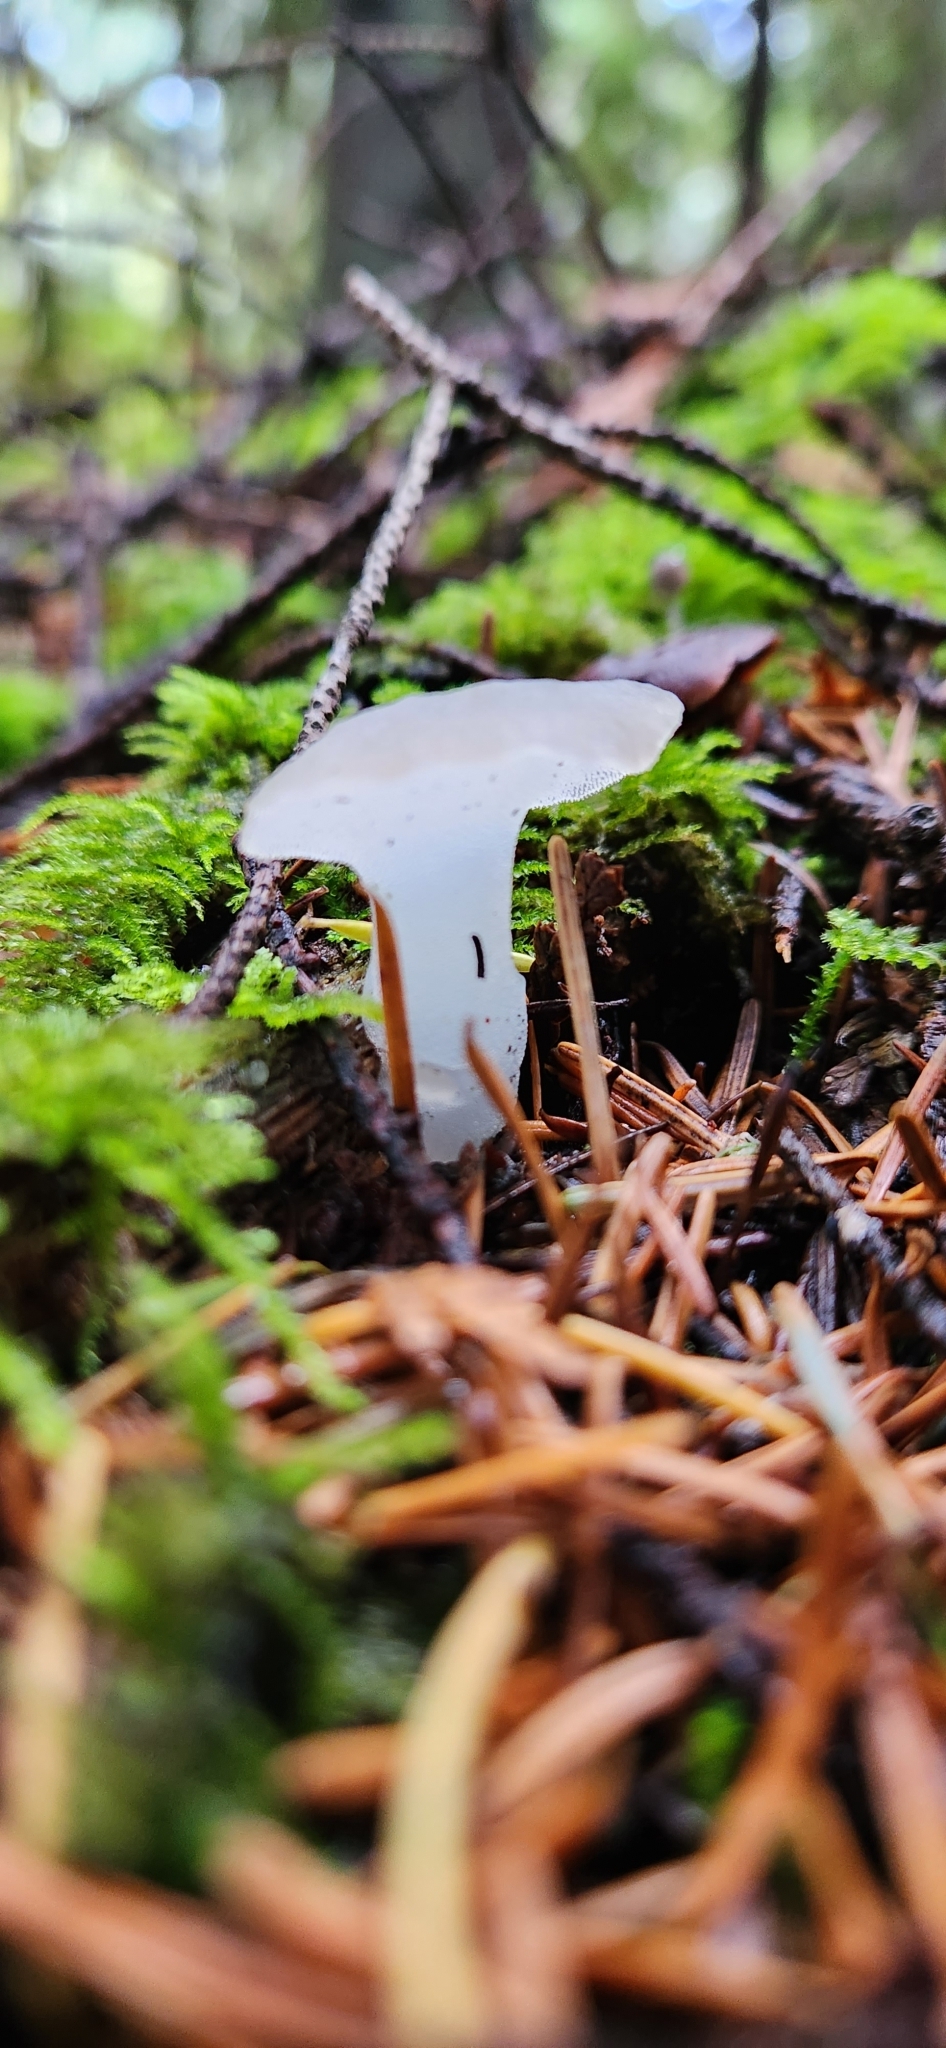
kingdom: Fungi
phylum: Basidiomycota
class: Agaricomycetes
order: Auriculariales
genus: Pseudohydnum
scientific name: Pseudohydnum gelatinosum
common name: Jelly tongue
